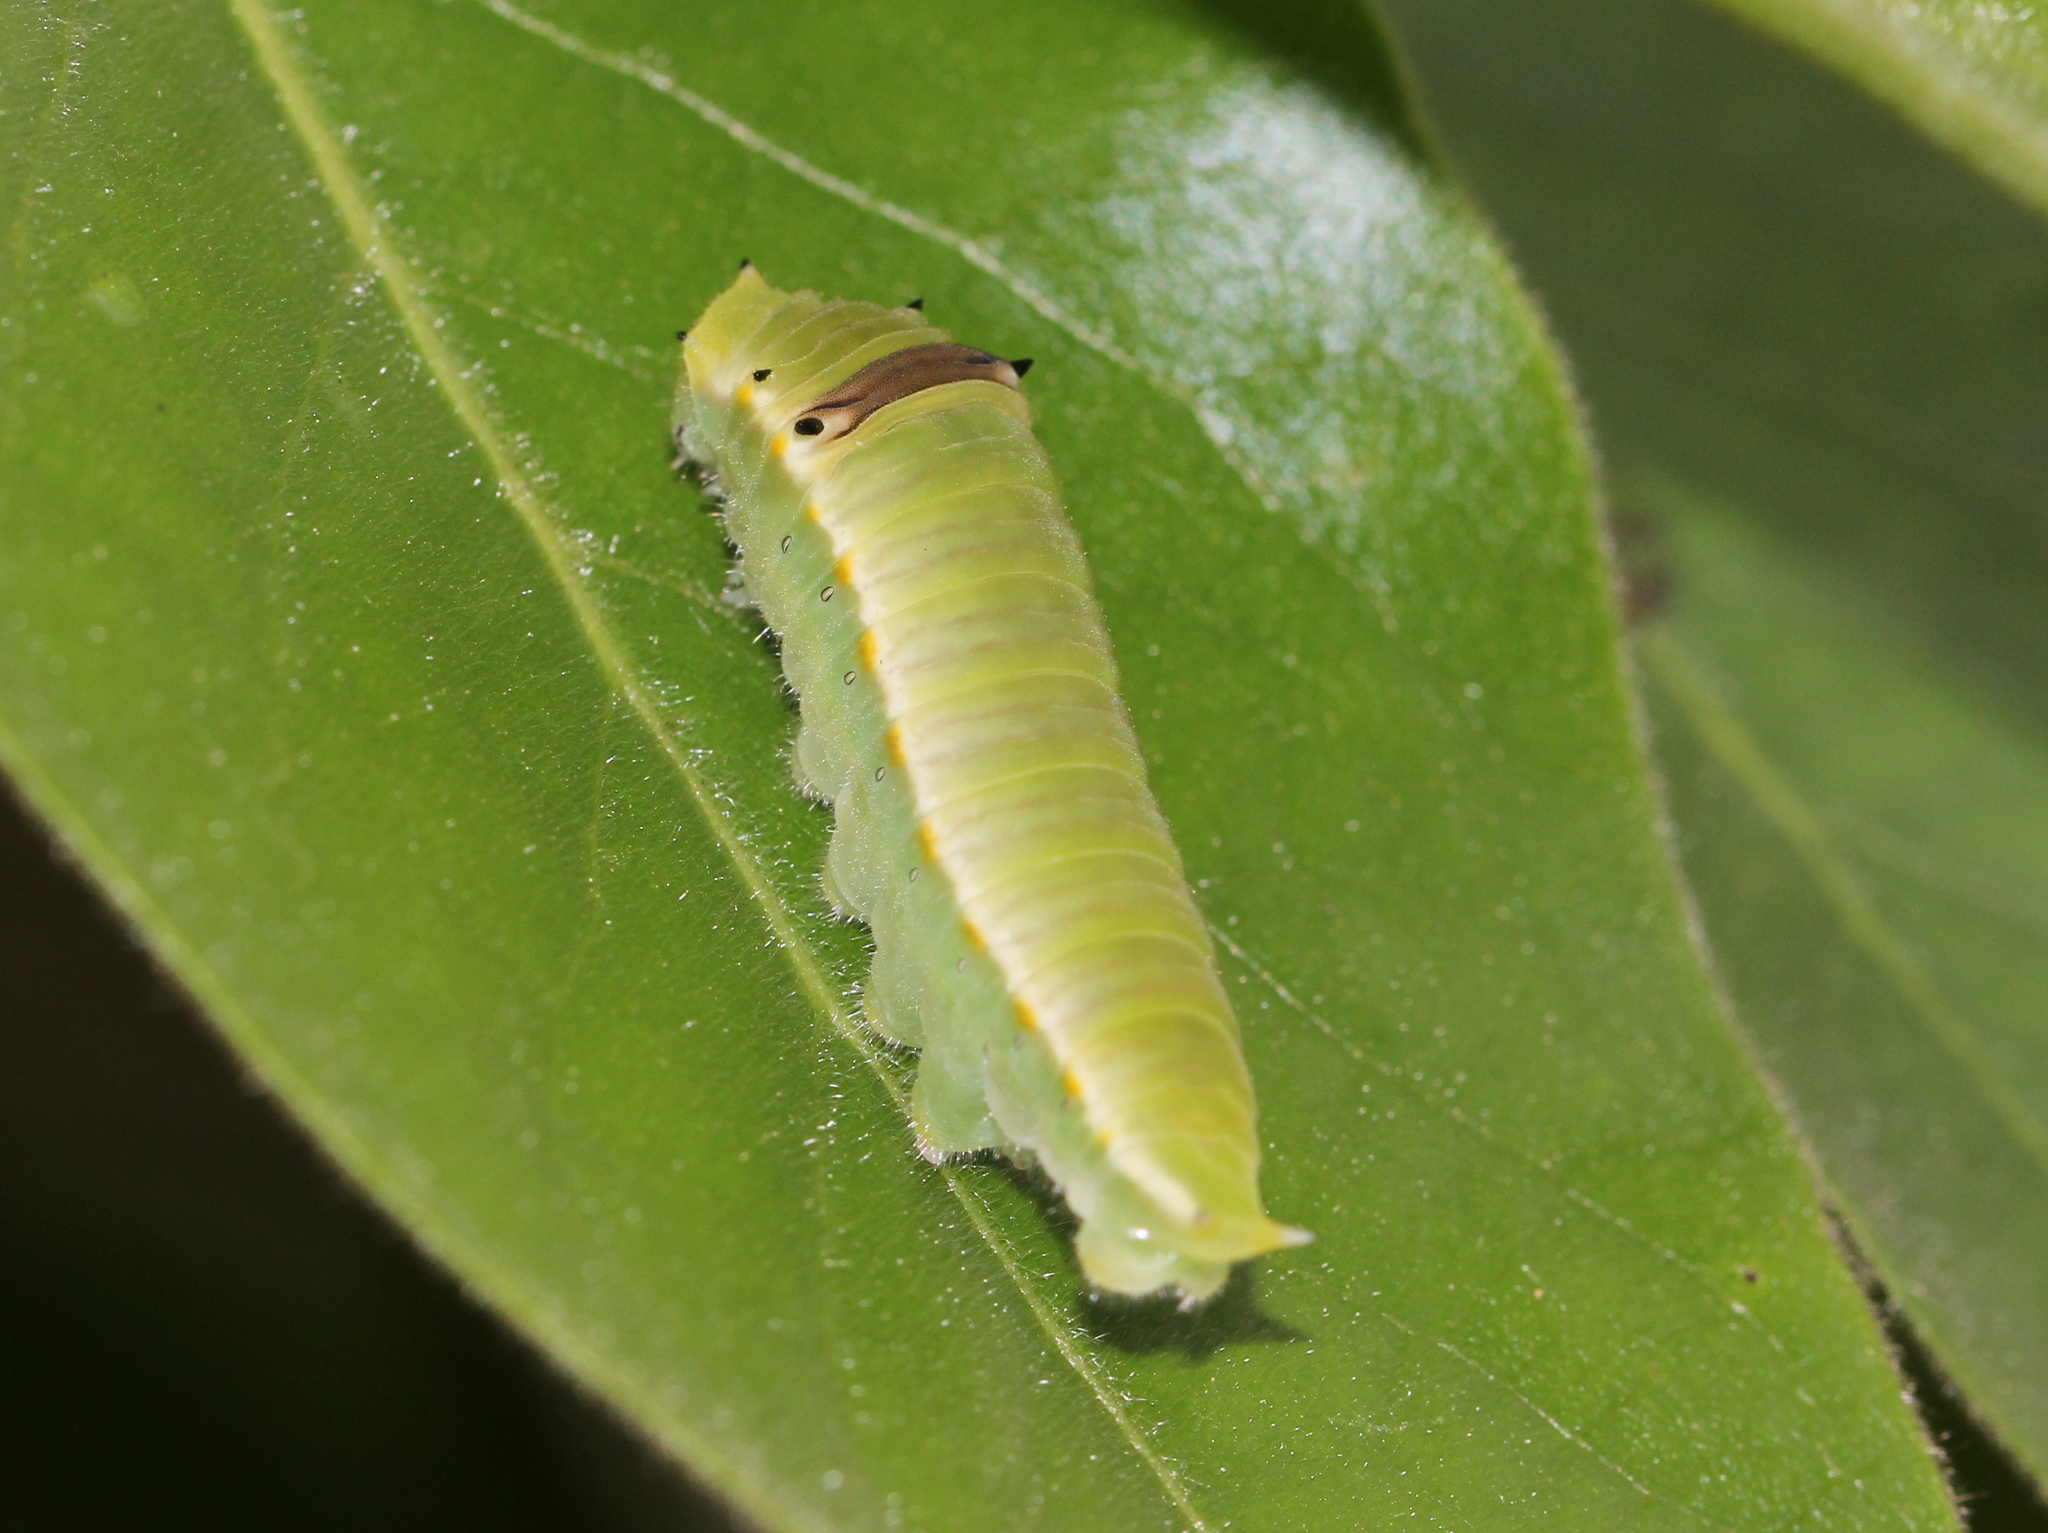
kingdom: Animalia
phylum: Arthropoda
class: Insecta
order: Lepidoptera
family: Papilionidae
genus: Graphium
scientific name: Graphium nomius
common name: Spot swordtail
